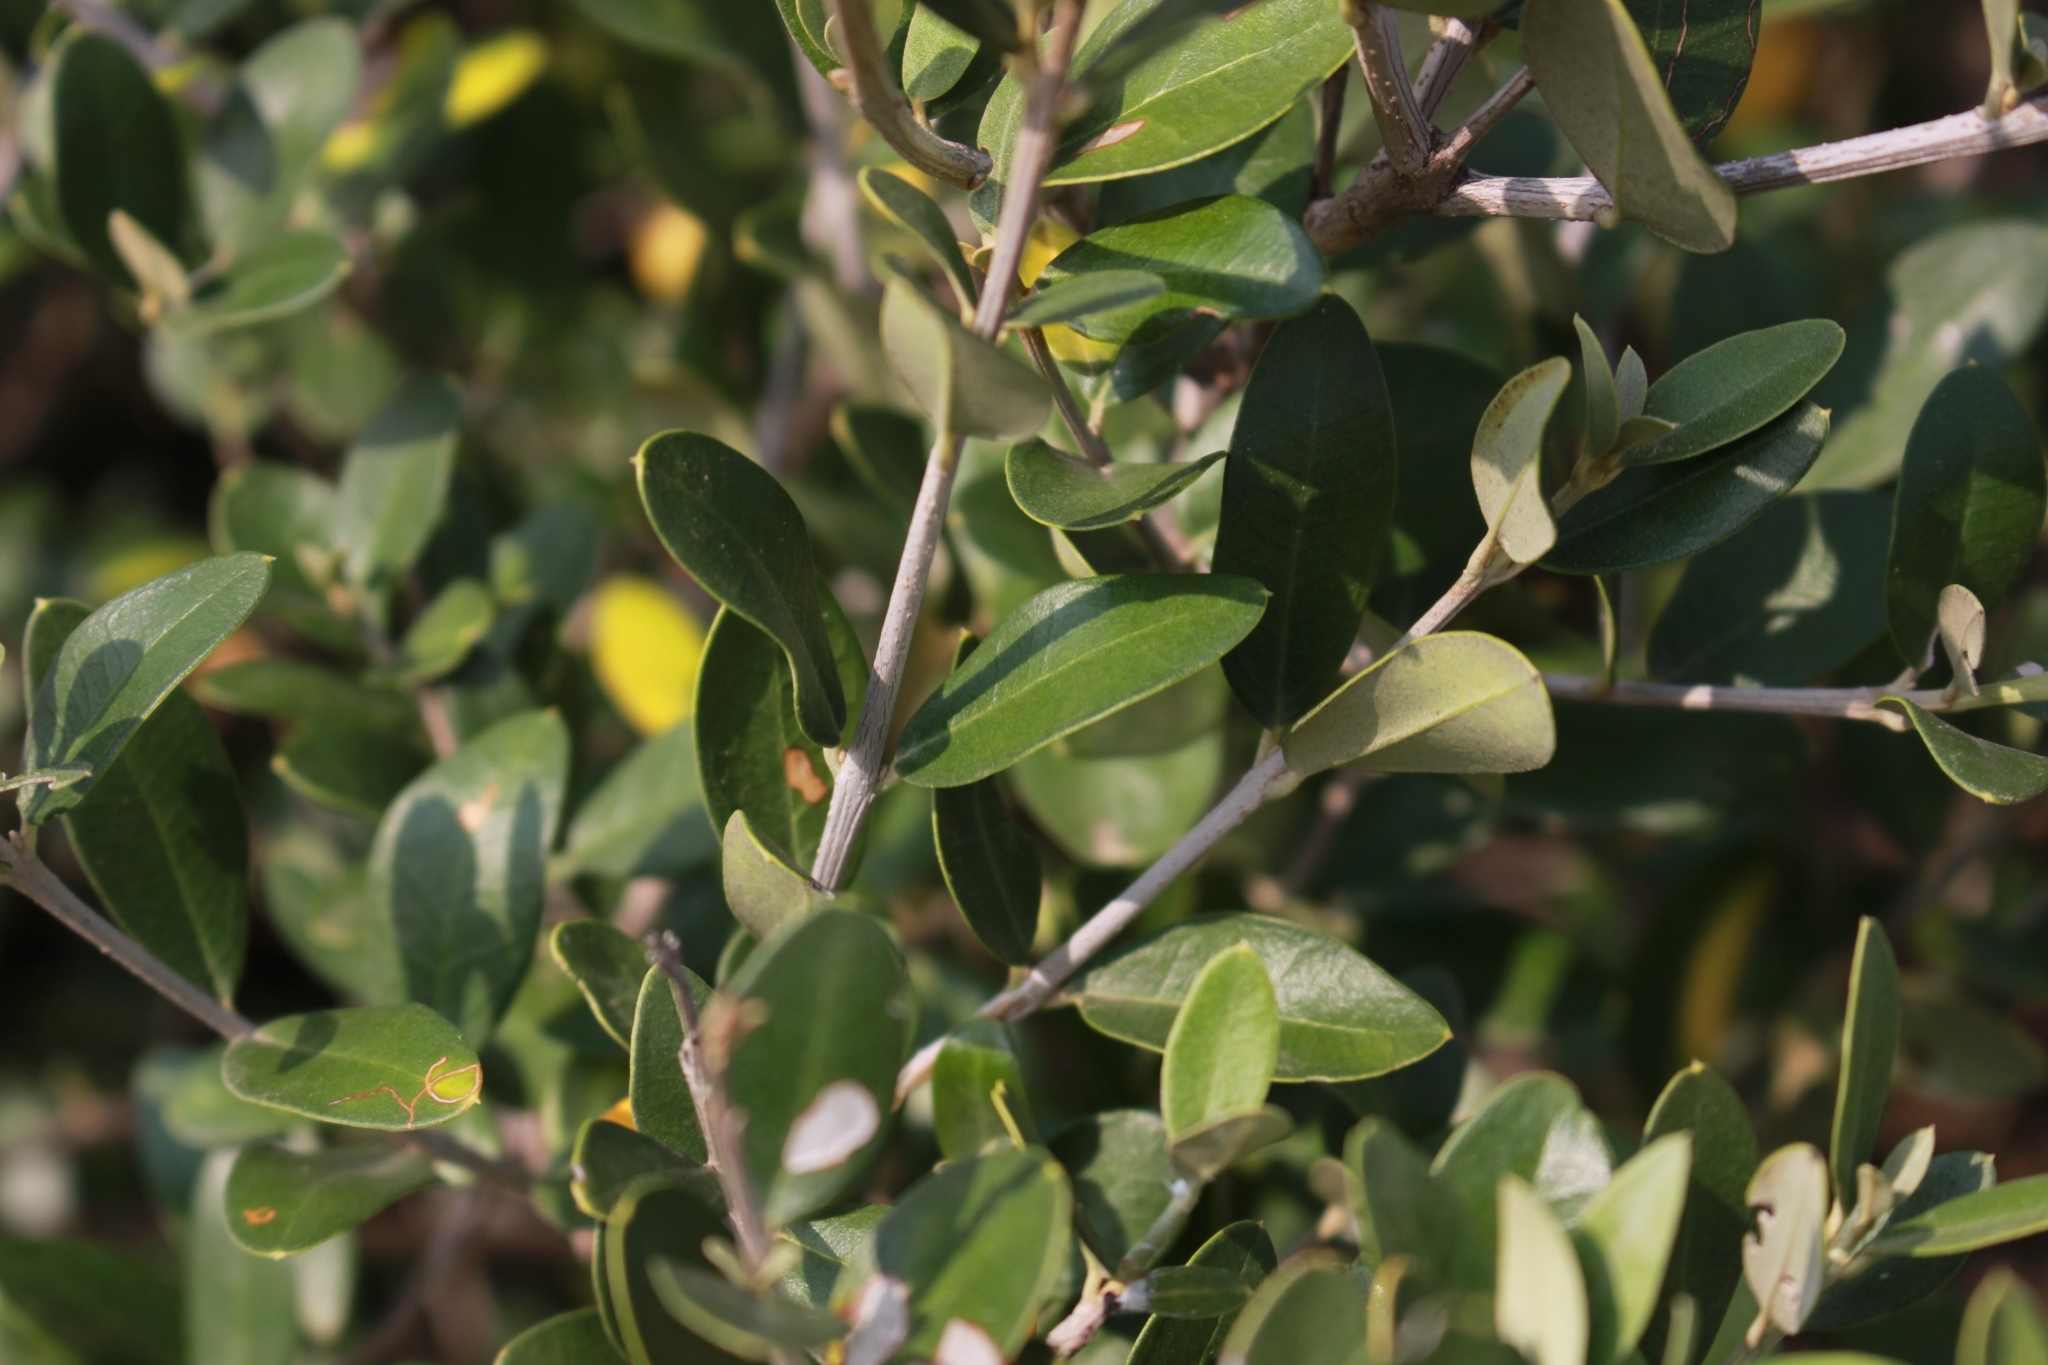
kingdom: Plantae
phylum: Tracheophyta
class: Magnoliopsida
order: Lamiales
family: Oleaceae
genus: Olea
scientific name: Olea europaea
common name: Olive
